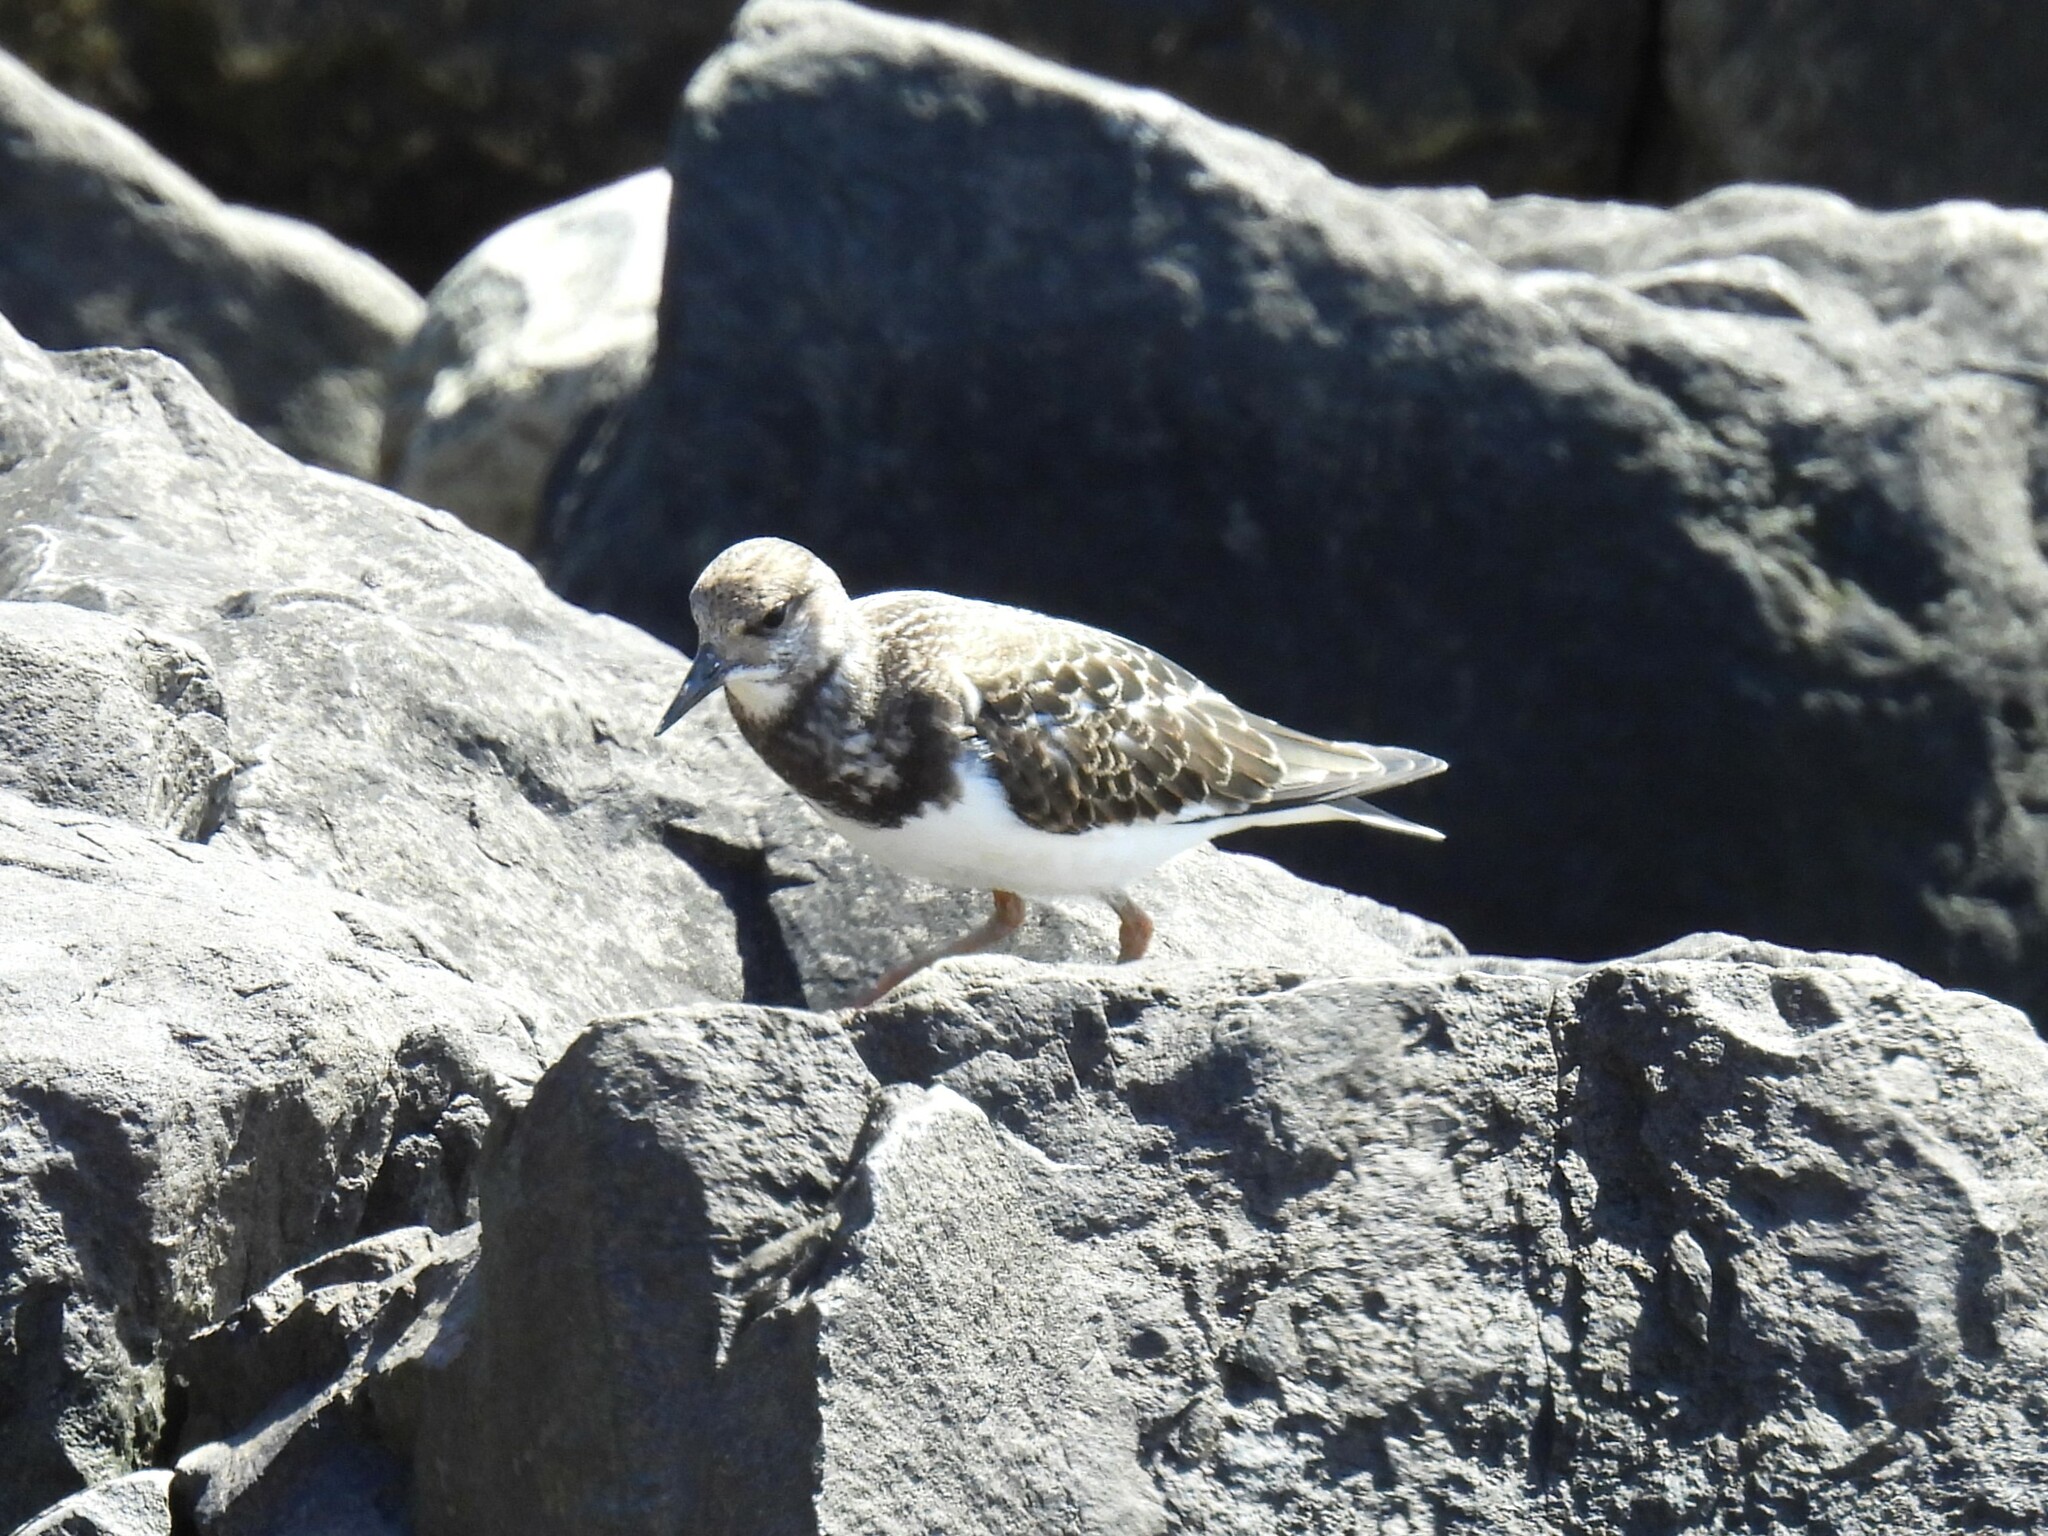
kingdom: Animalia
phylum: Chordata
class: Aves
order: Charadriiformes
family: Scolopacidae
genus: Arenaria
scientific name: Arenaria interpres
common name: Ruddy turnstone
